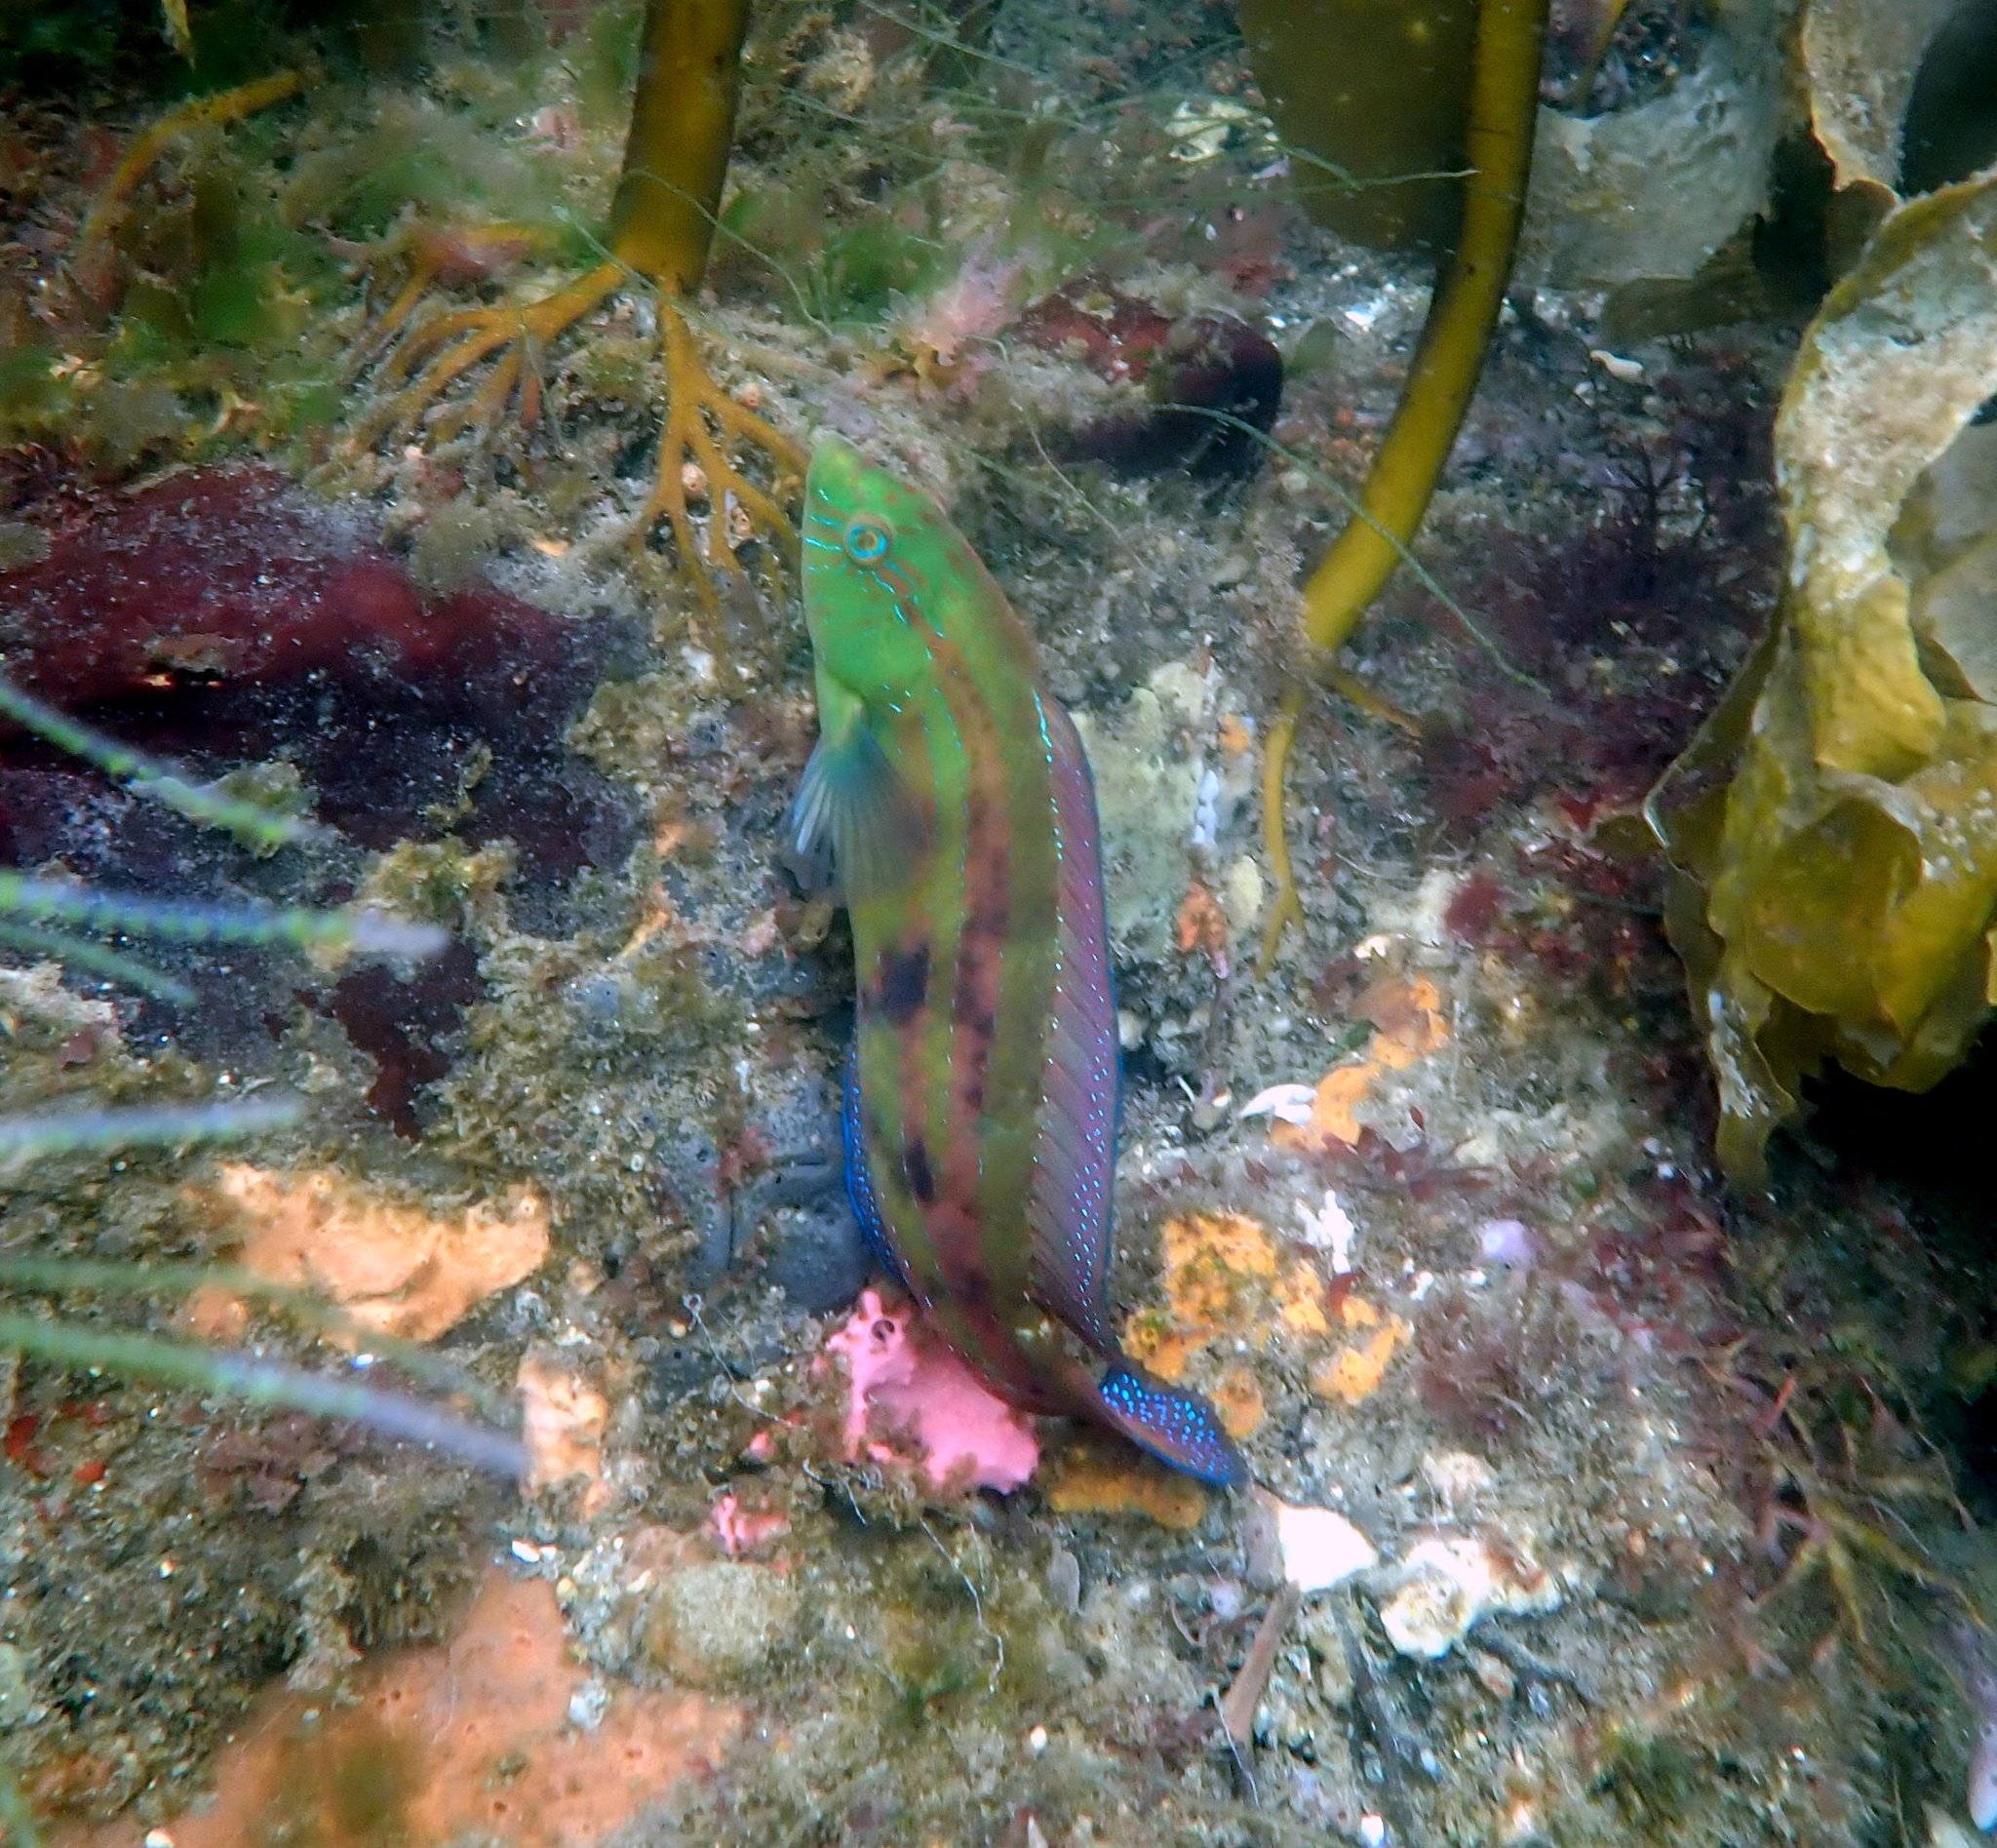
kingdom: Animalia
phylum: Chordata
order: Perciformes
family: Labridae
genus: Pictilabrus
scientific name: Pictilabrus laticlavius
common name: Patrician wrasse
